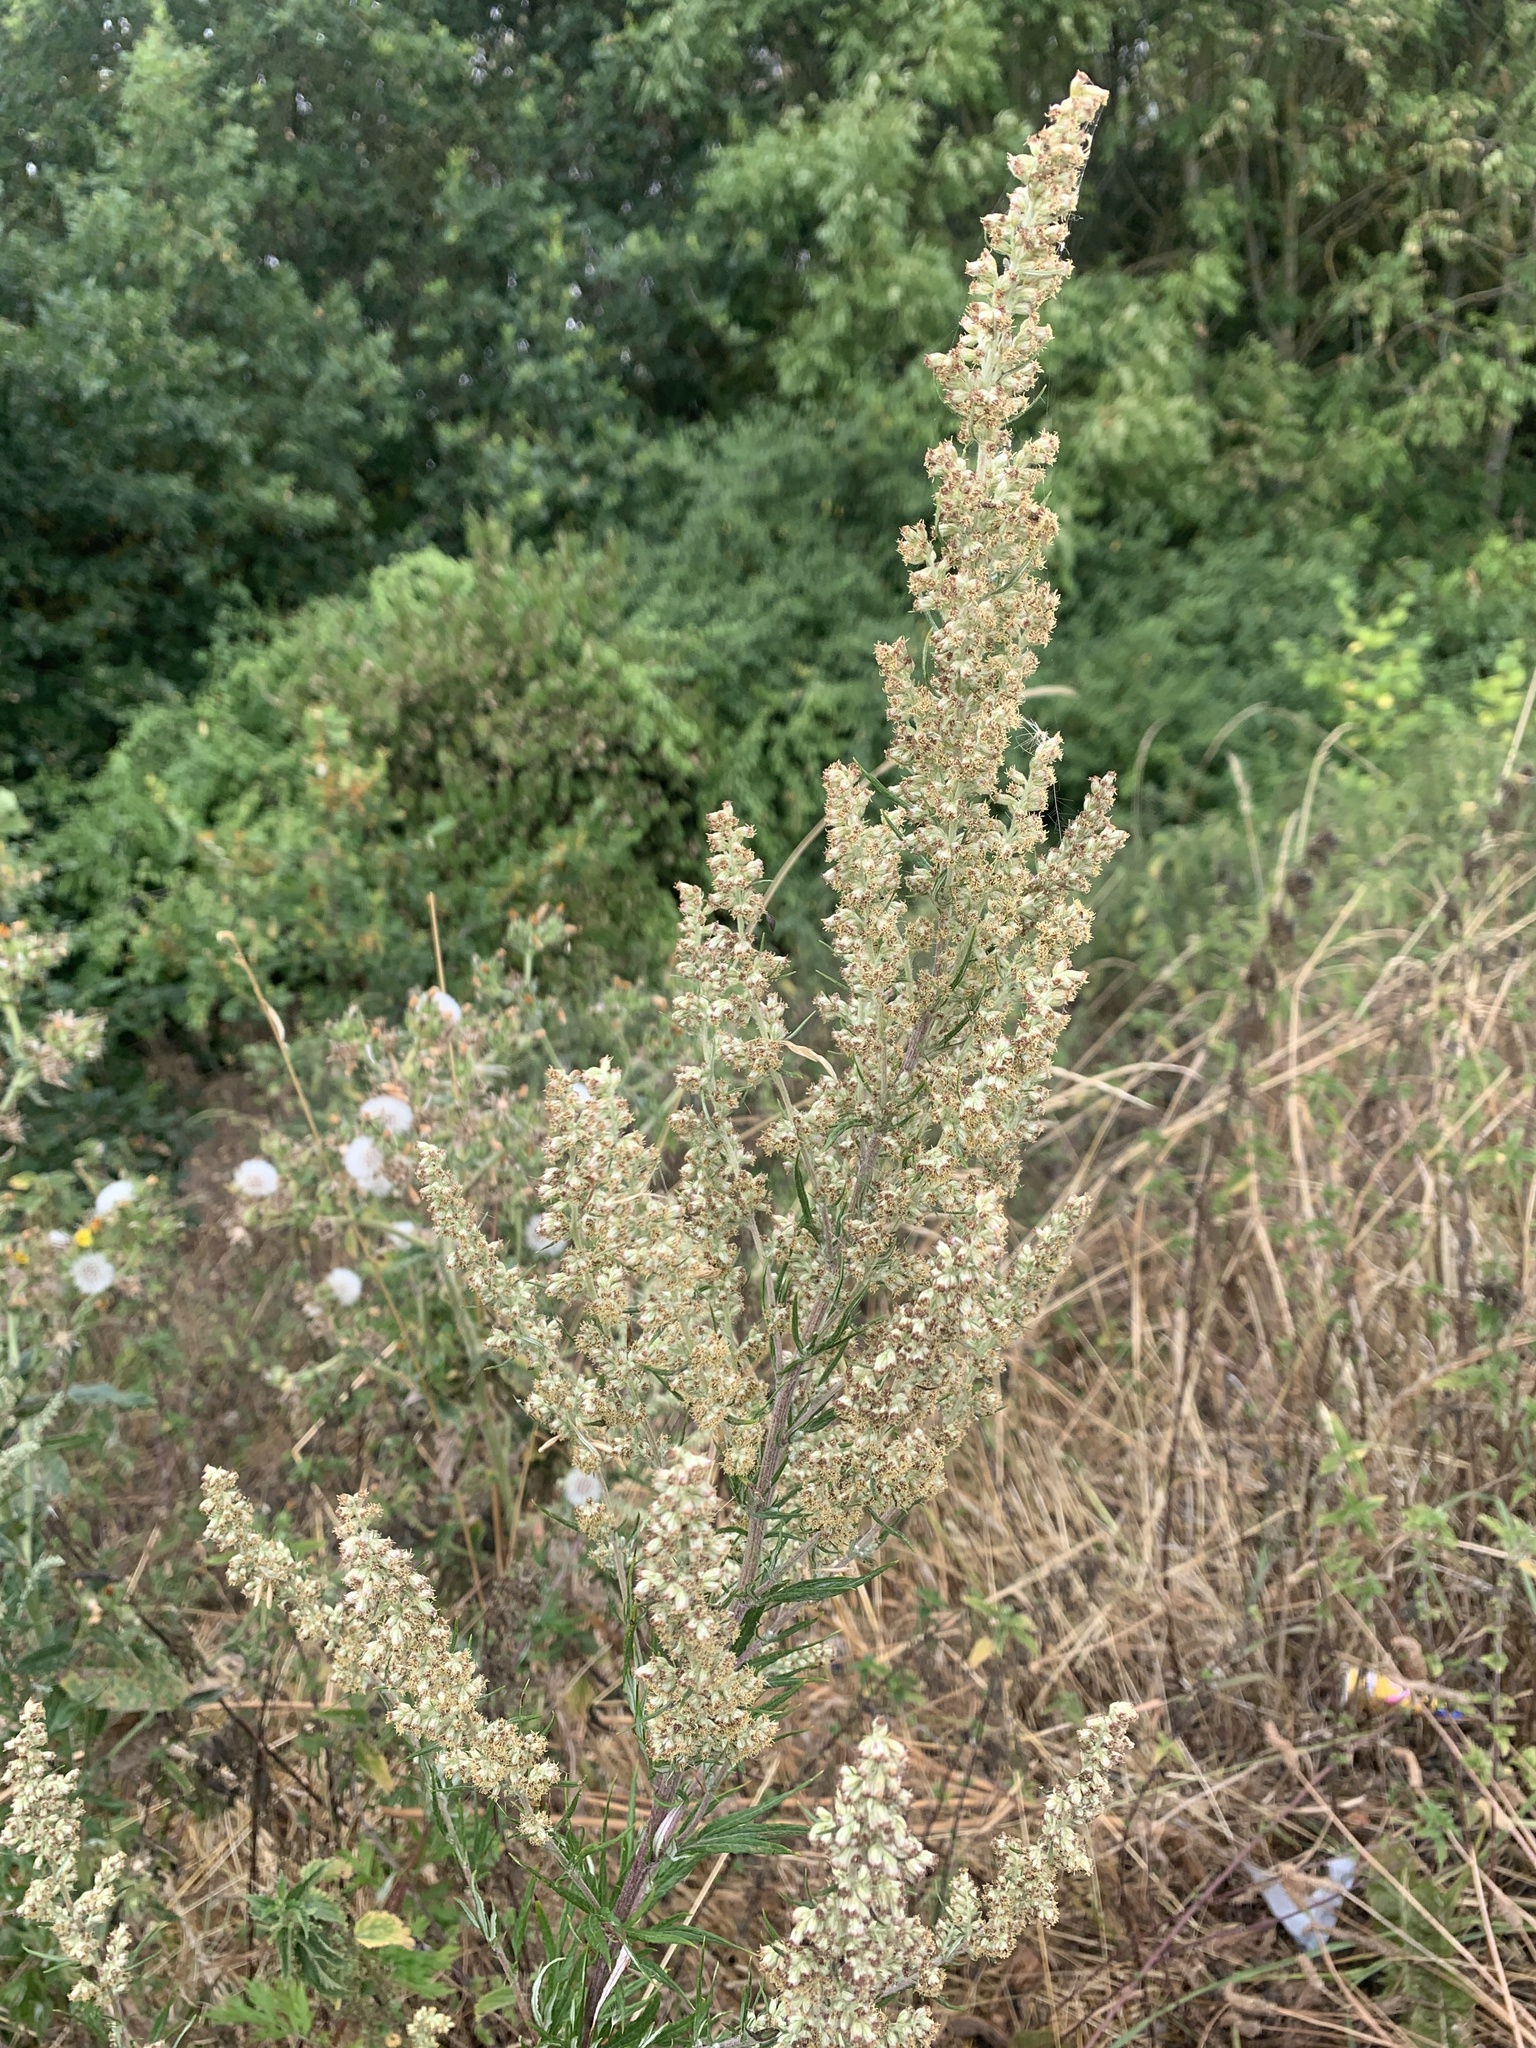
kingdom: Plantae
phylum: Tracheophyta
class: Magnoliopsida
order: Asterales
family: Asteraceae
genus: Artemisia
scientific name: Artemisia vulgaris
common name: Mugwort
